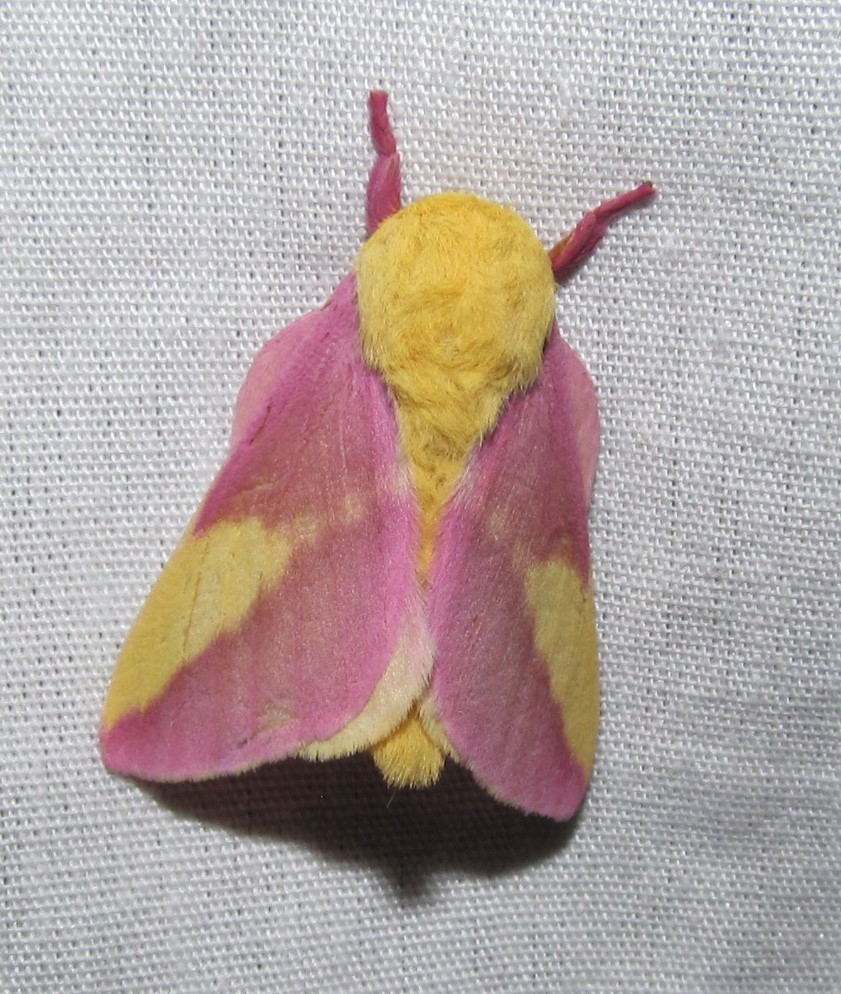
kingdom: Animalia
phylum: Arthropoda
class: Insecta
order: Lepidoptera
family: Saturniidae
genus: Dryocampa
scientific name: Dryocampa rubicunda
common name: Rosy maple moth
